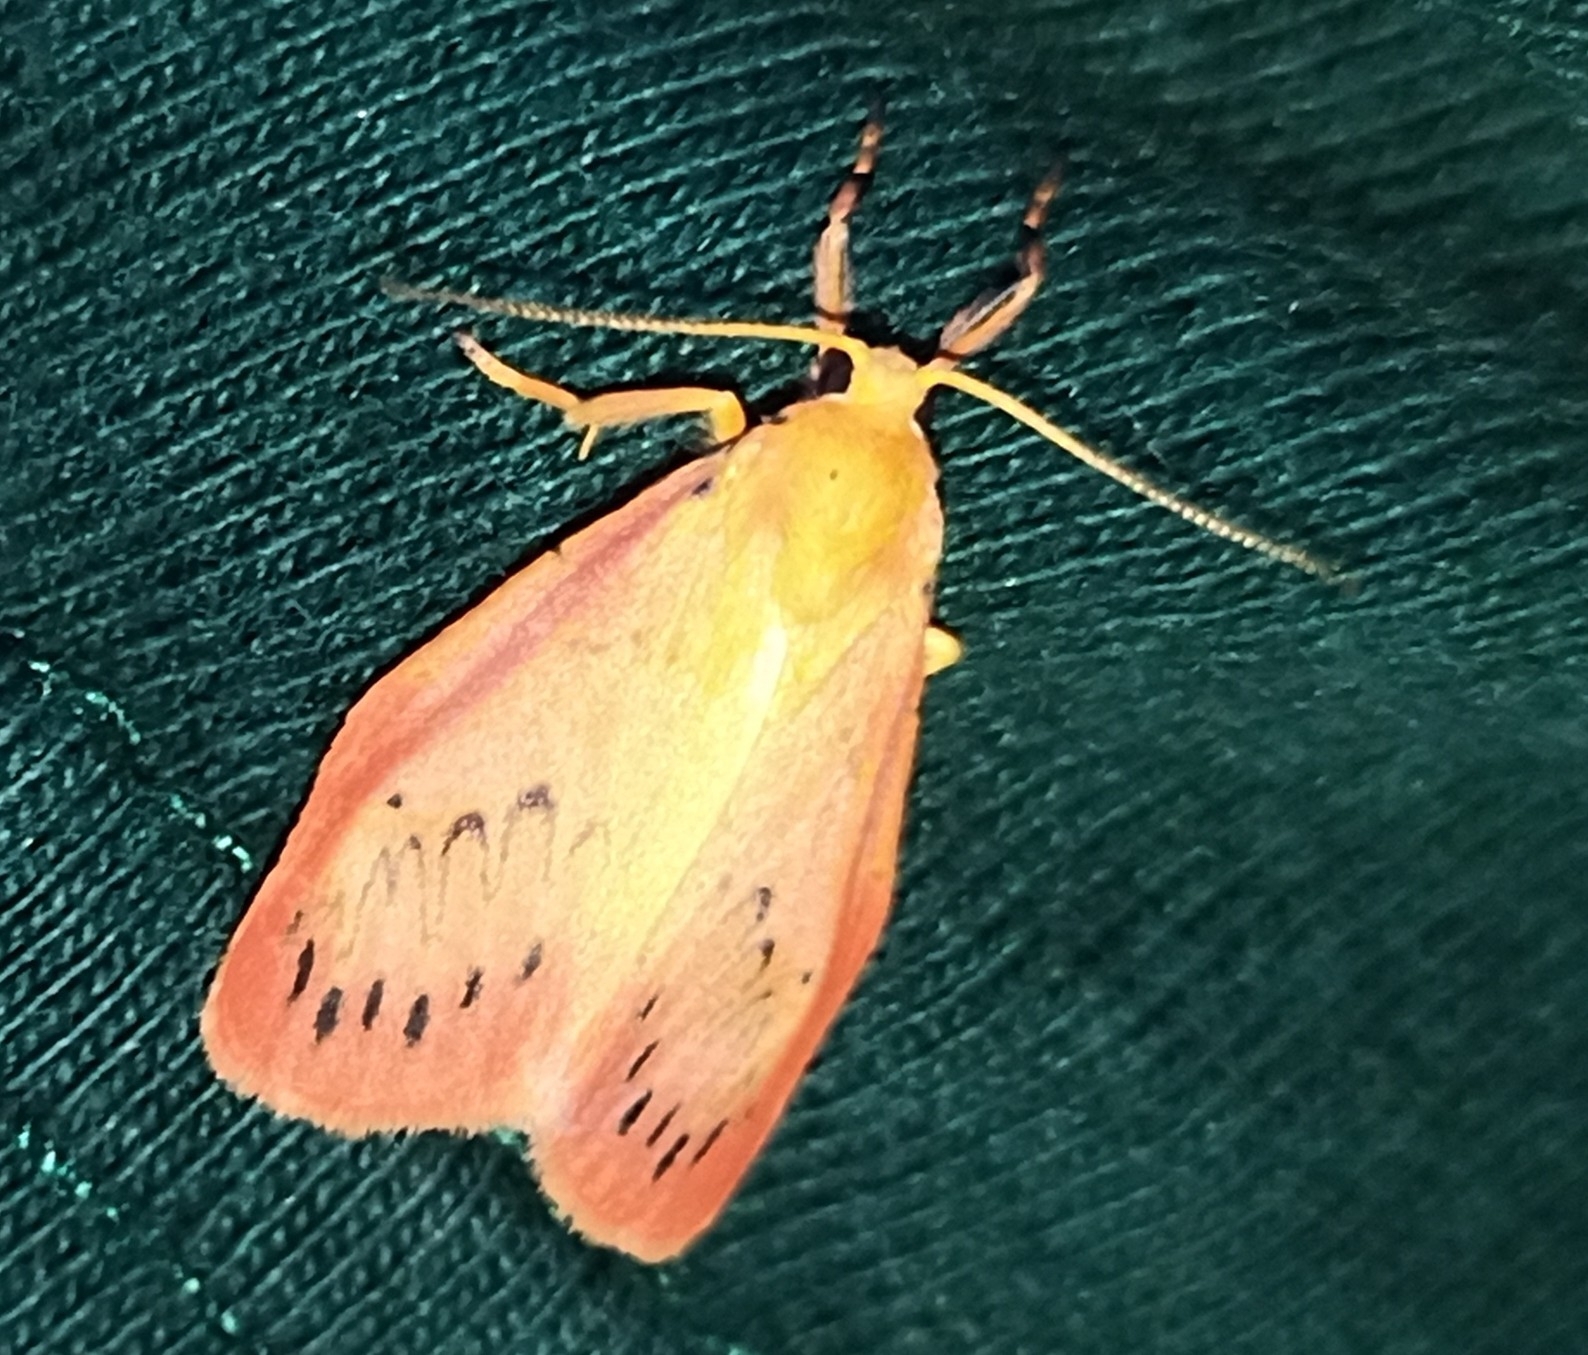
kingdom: Animalia
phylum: Arthropoda
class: Insecta
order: Lepidoptera
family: Erebidae
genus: Miltochrista
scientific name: Miltochrista miniata
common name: Rosy footman
